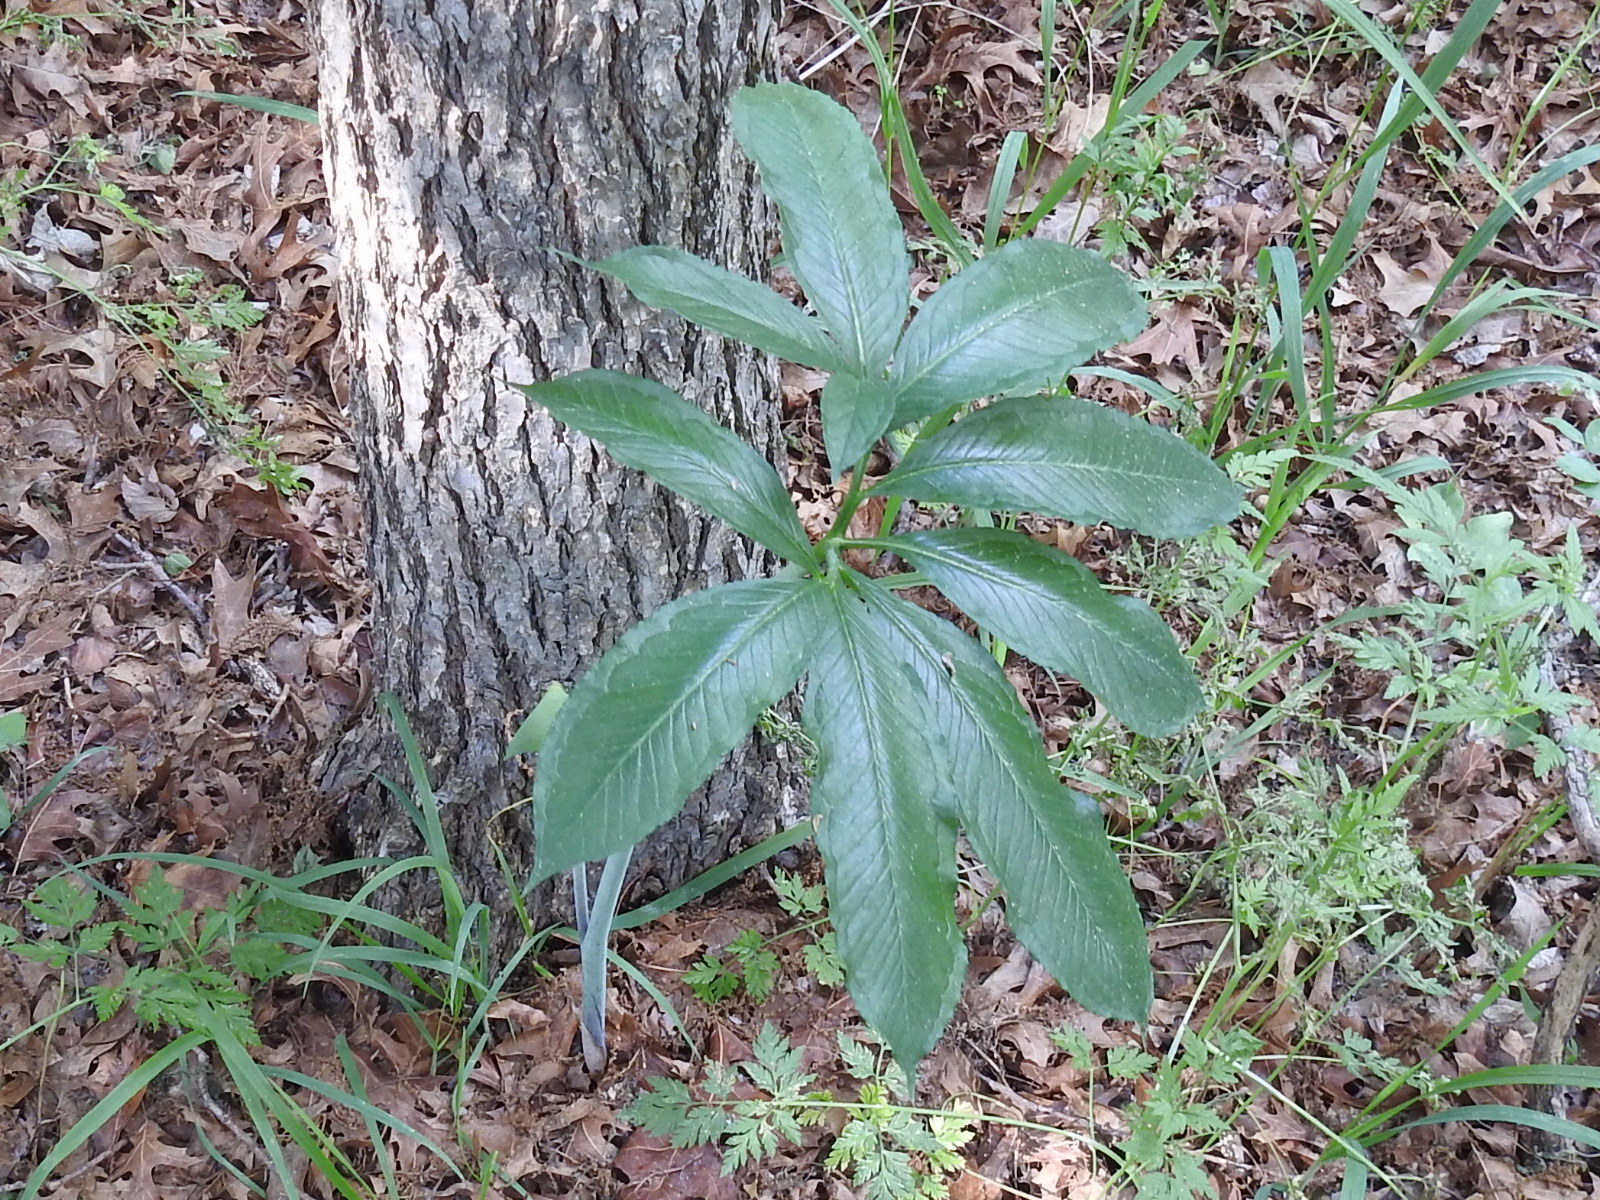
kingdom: Plantae
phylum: Tracheophyta
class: Liliopsida
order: Alismatales
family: Araceae
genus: Arisaema
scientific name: Arisaema dracontium
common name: Dragon-arum
